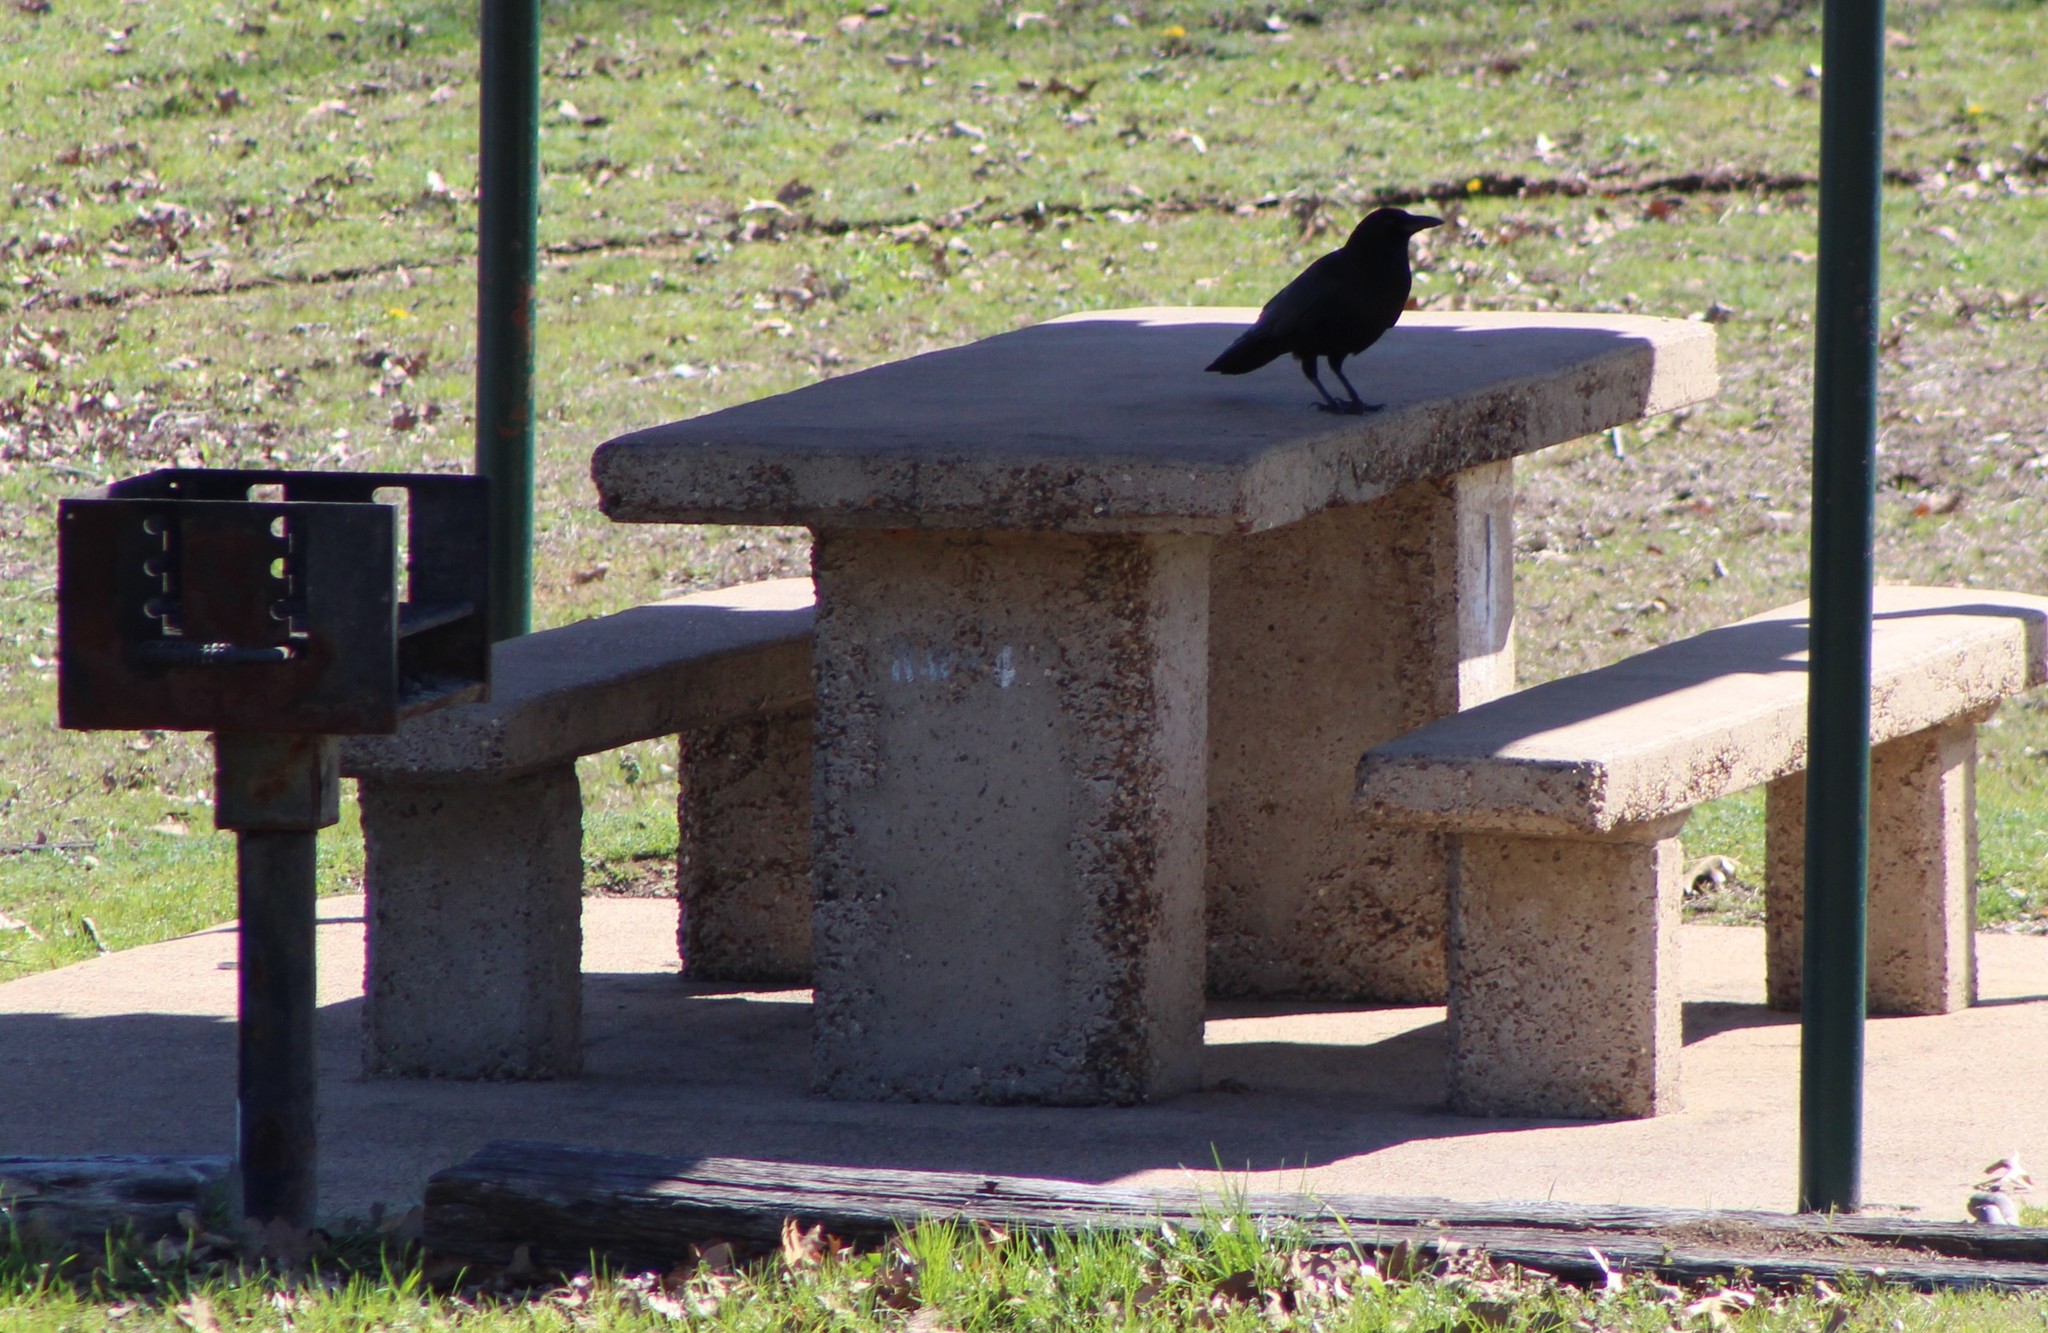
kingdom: Animalia
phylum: Chordata
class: Aves
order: Passeriformes
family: Corvidae
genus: Corvus
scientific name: Corvus brachyrhynchos
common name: American crow
